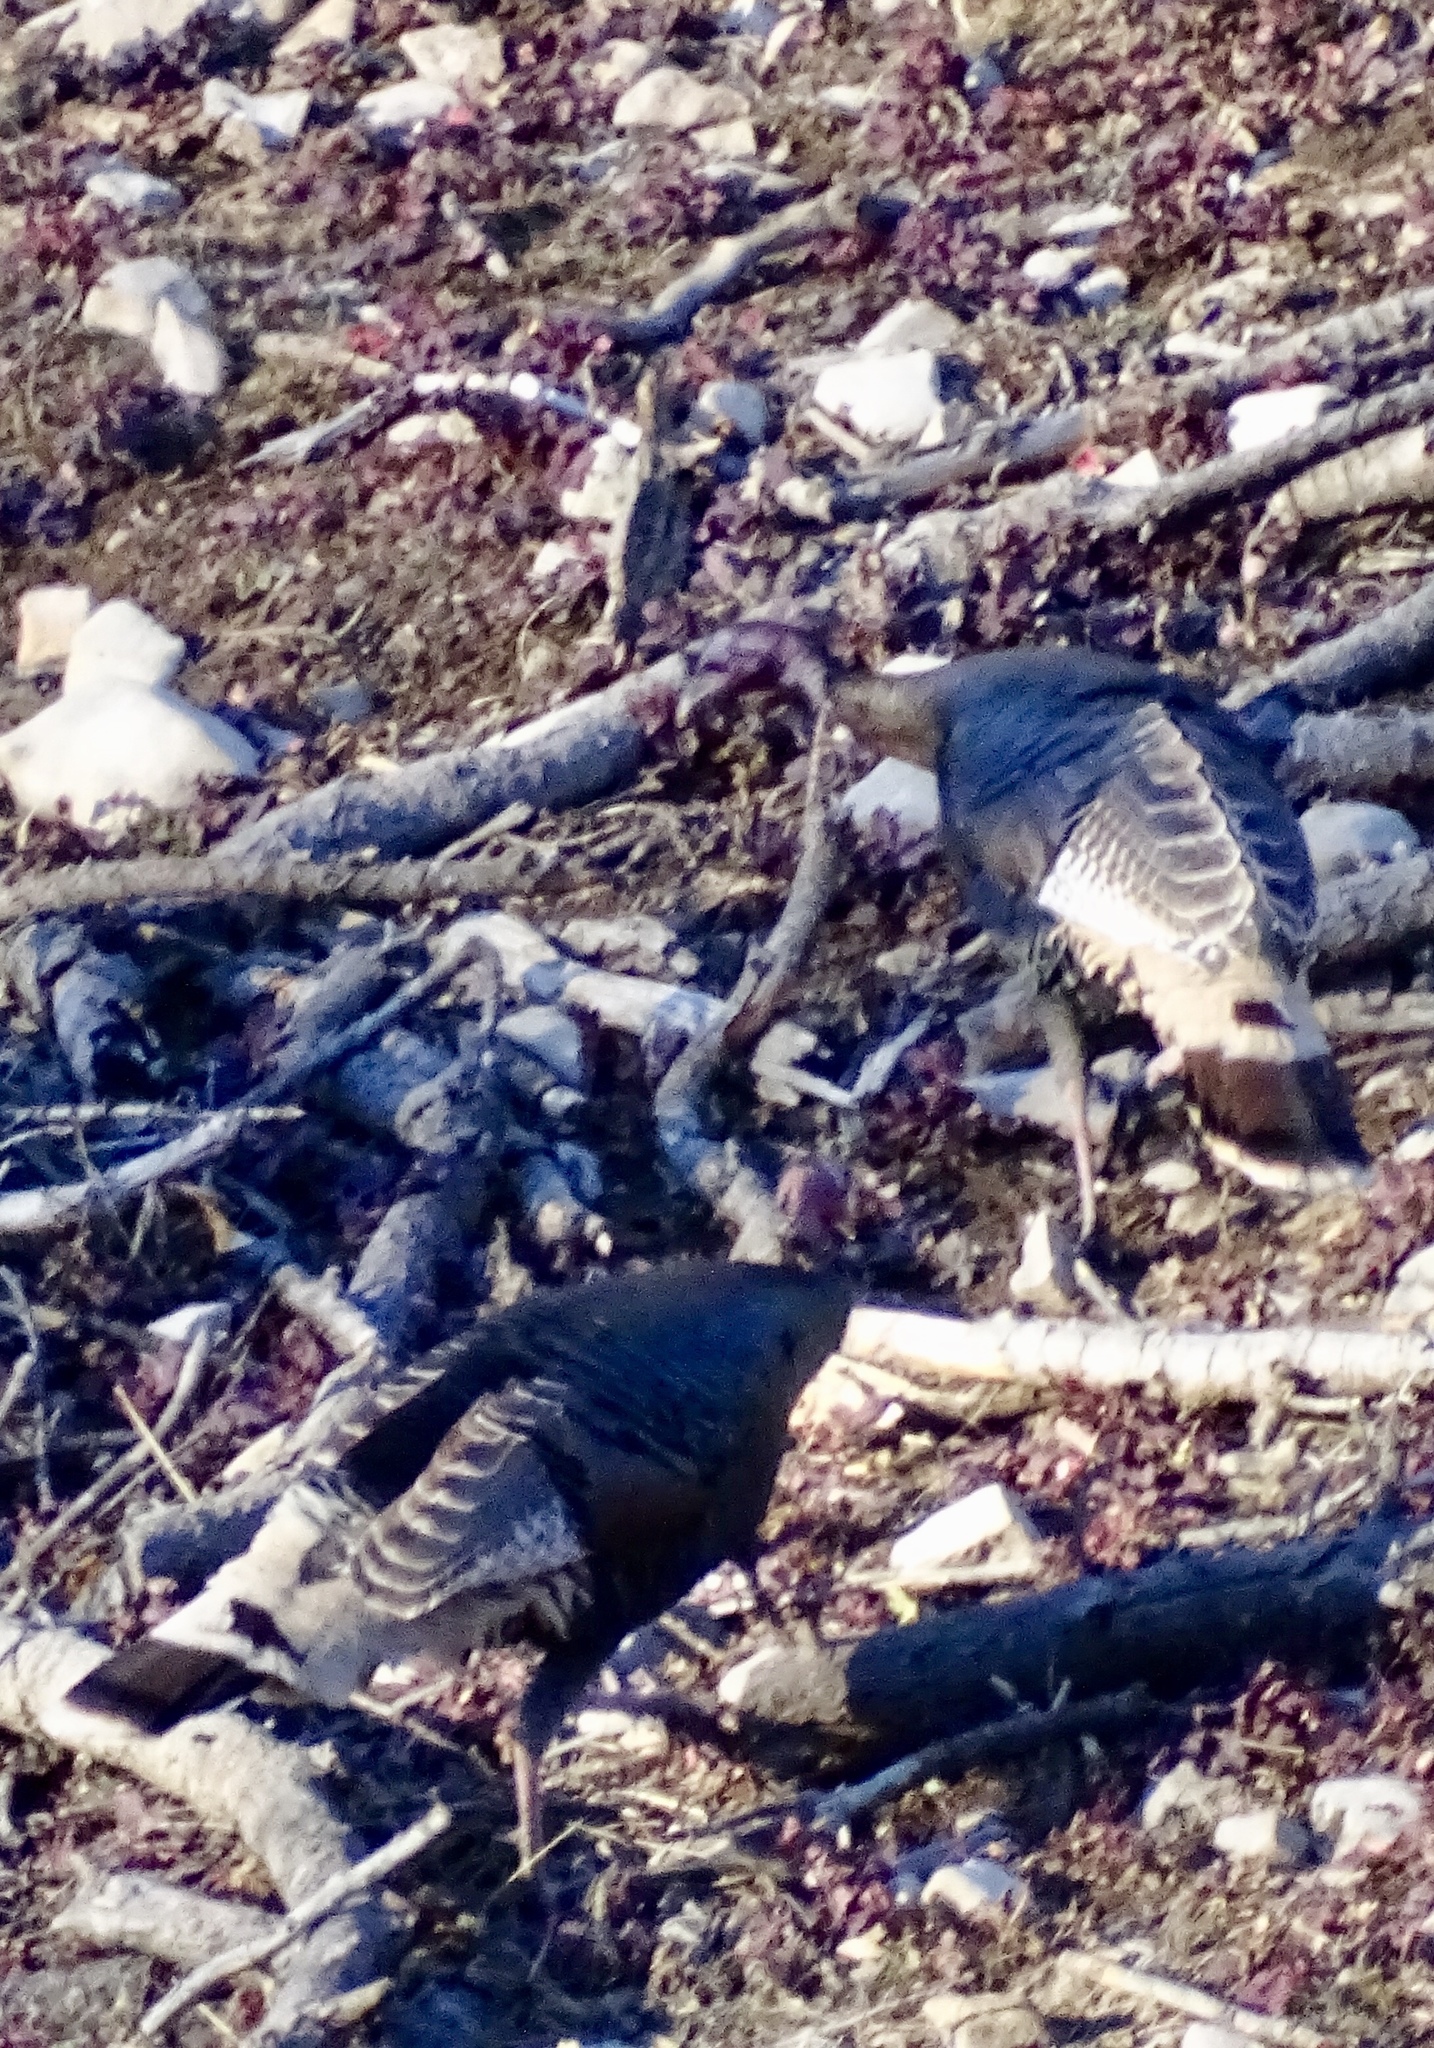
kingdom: Animalia
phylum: Chordata
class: Aves
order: Galliformes
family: Phasianidae
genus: Meleagris
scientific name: Meleagris gallopavo
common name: Wild turkey
